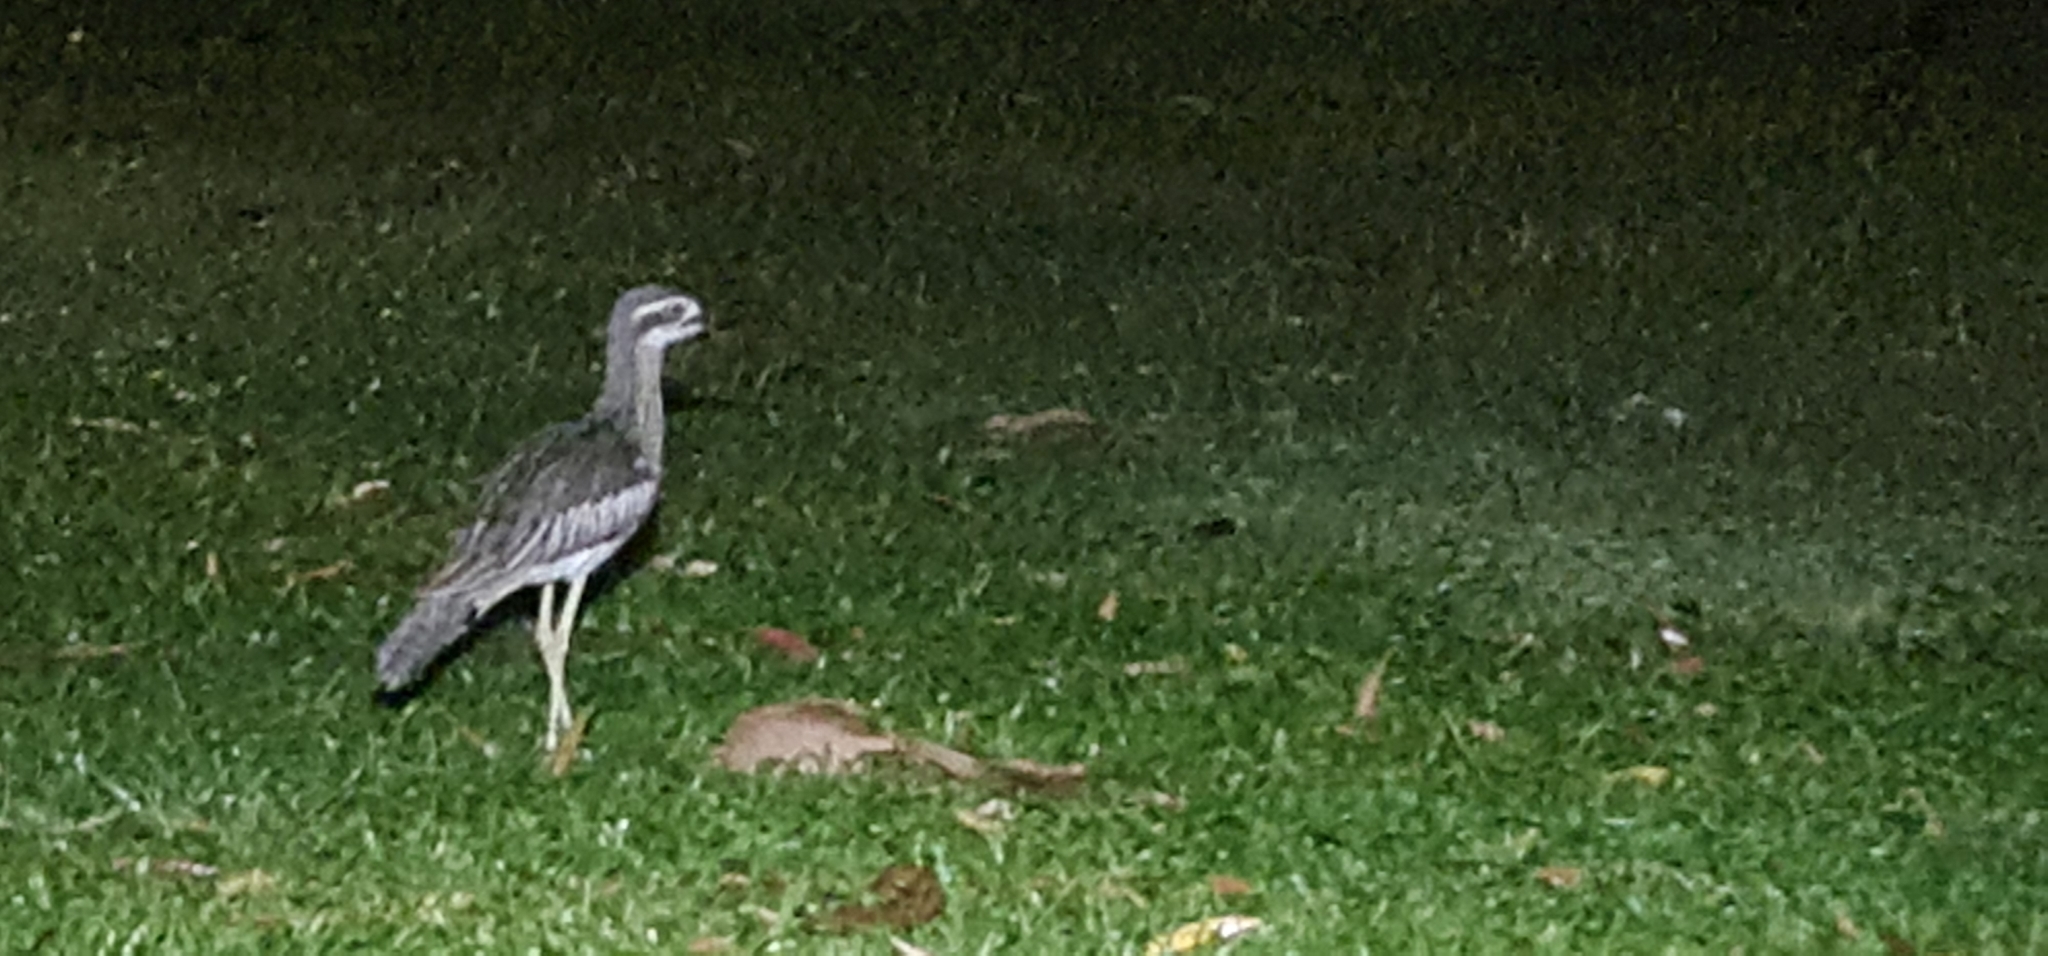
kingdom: Animalia
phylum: Chordata
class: Aves
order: Charadriiformes
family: Burhinidae
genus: Burhinus
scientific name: Burhinus grallarius
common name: Bush stone-curlew
